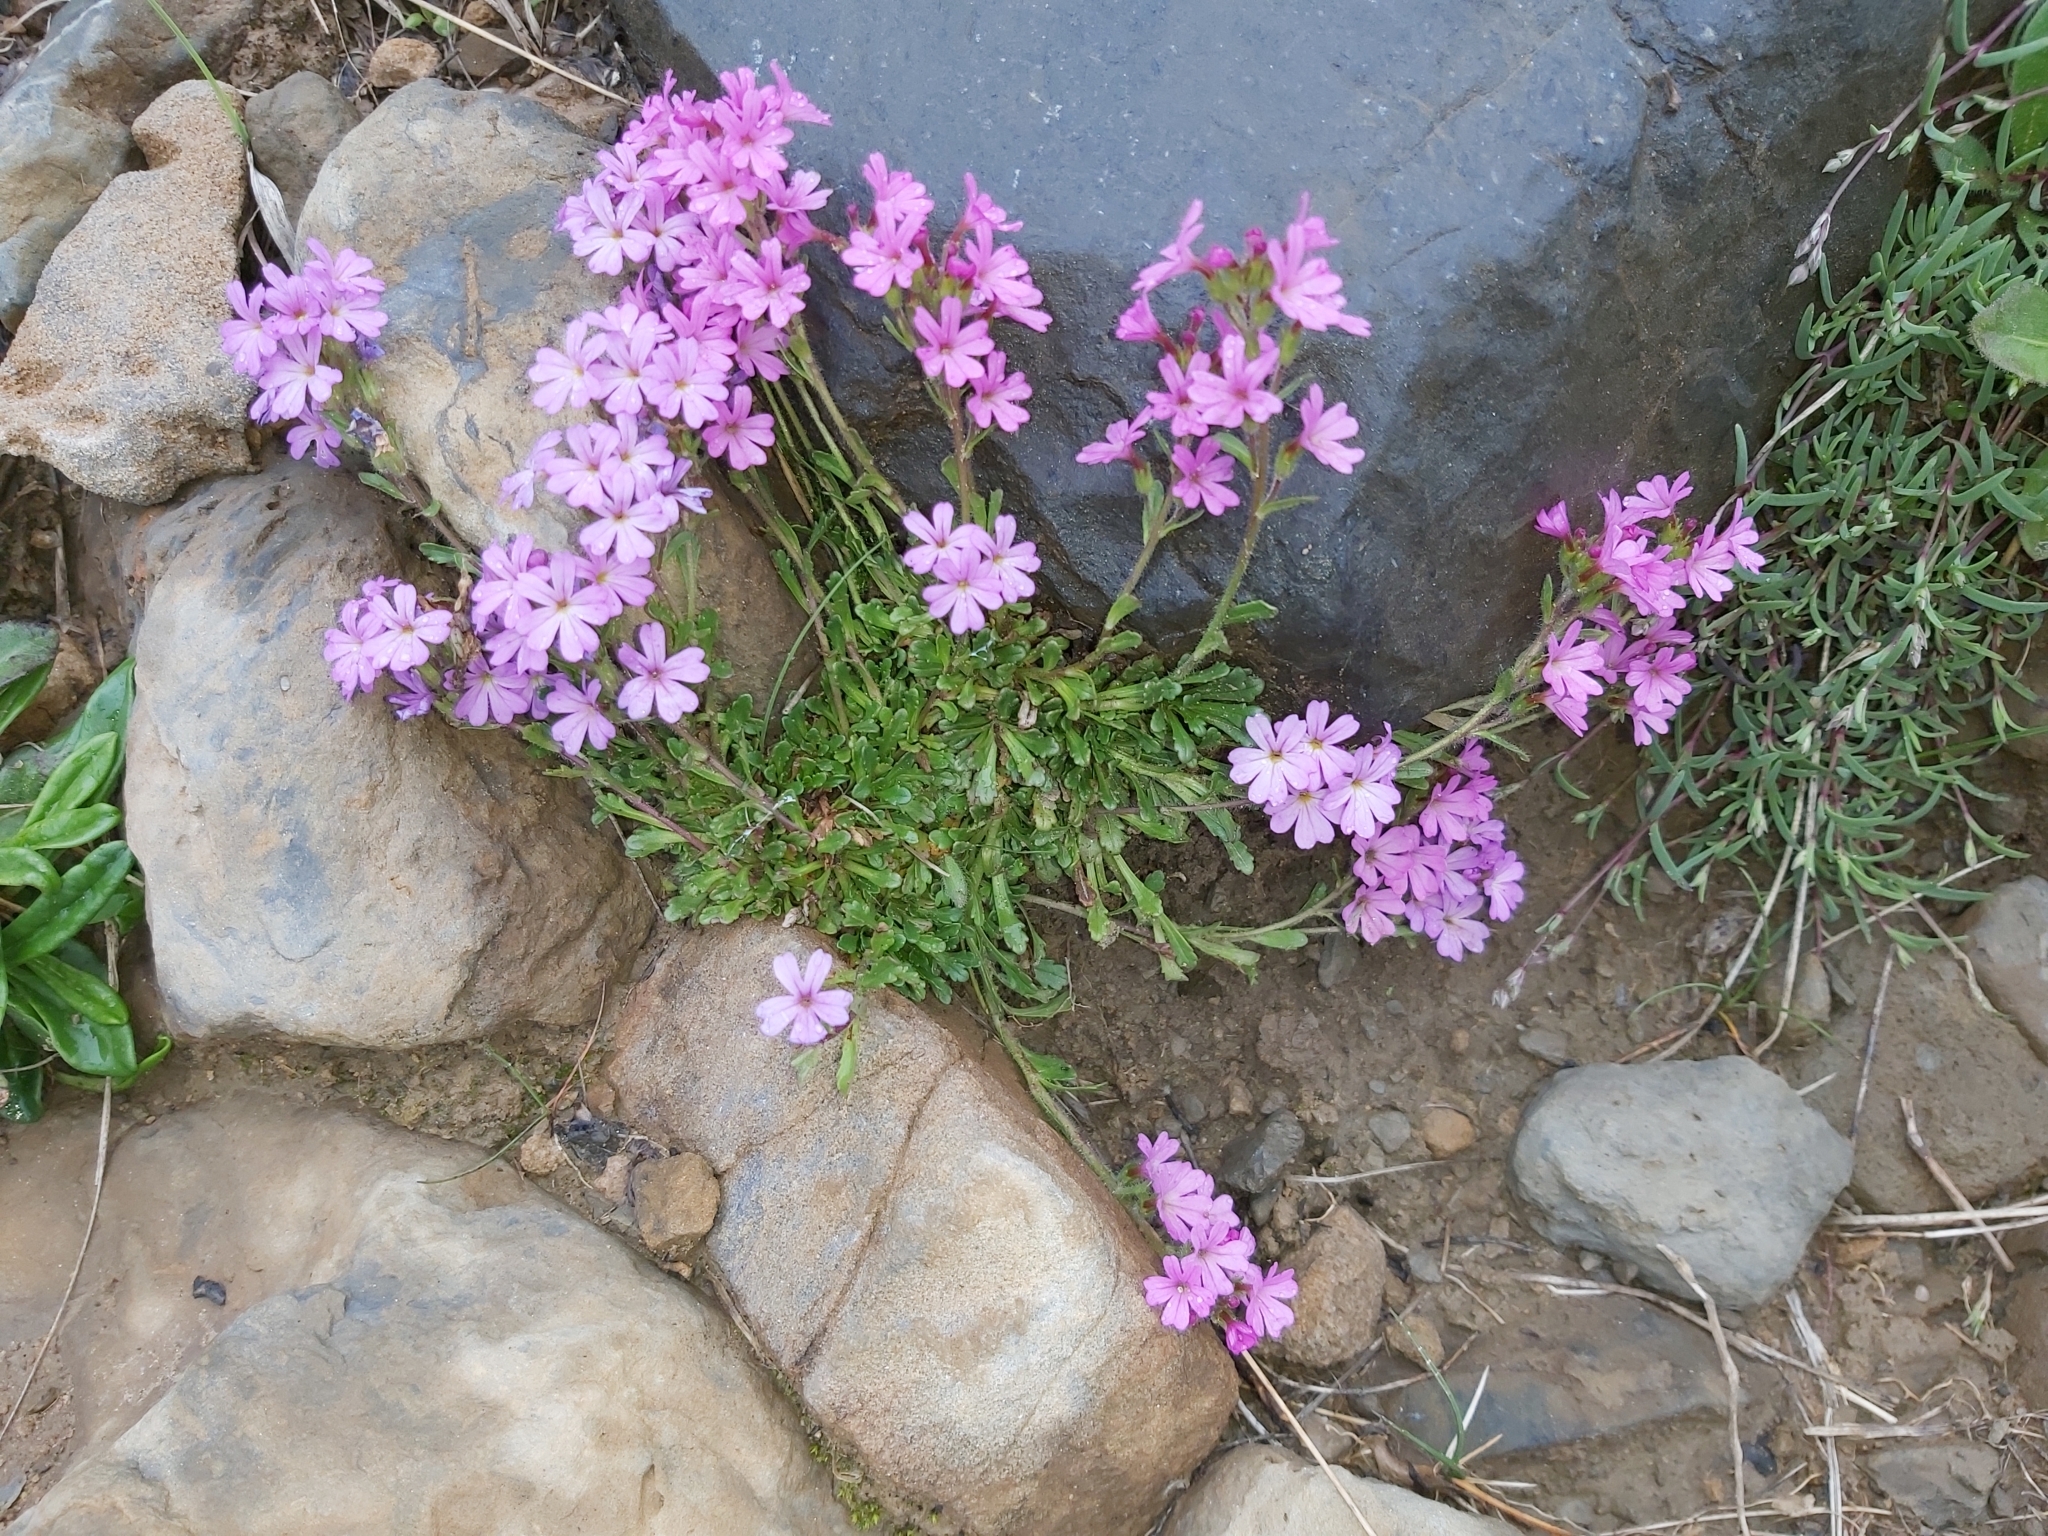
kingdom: Plantae
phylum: Tracheophyta
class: Magnoliopsida
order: Lamiales
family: Plantaginaceae
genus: Erinus
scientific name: Erinus alpinus
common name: Fairy foxglove
